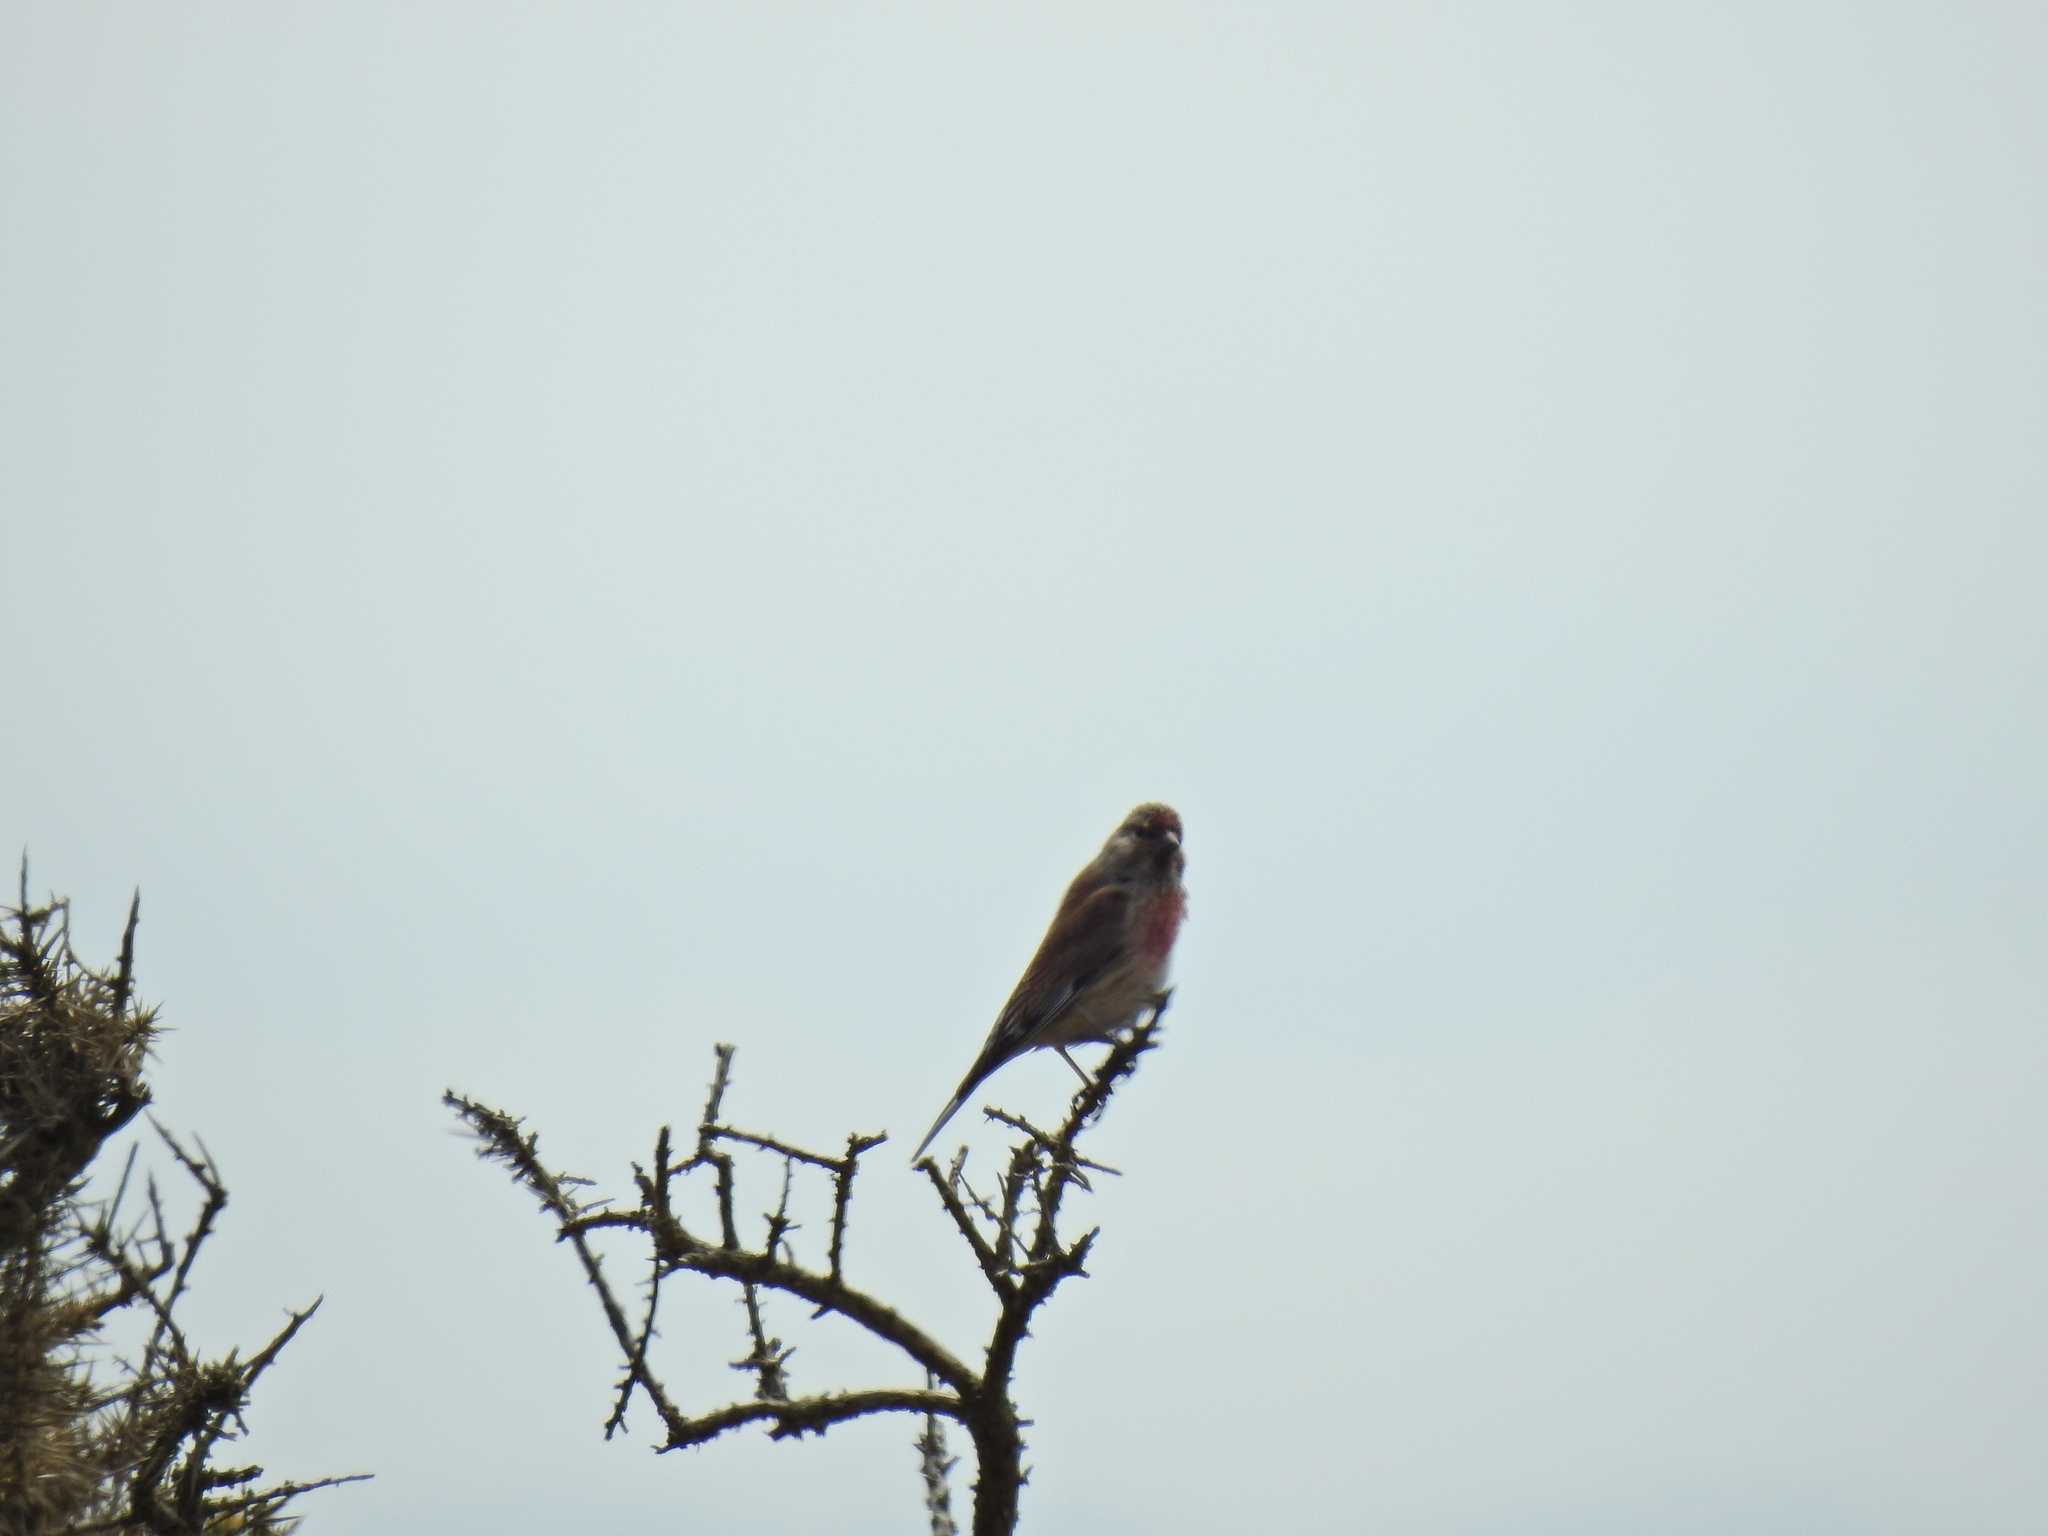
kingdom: Animalia
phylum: Chordata
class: Aves
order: Passeriformes
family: Fringillidae
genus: Linaria
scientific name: Linaria cannabina
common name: Common linnet
